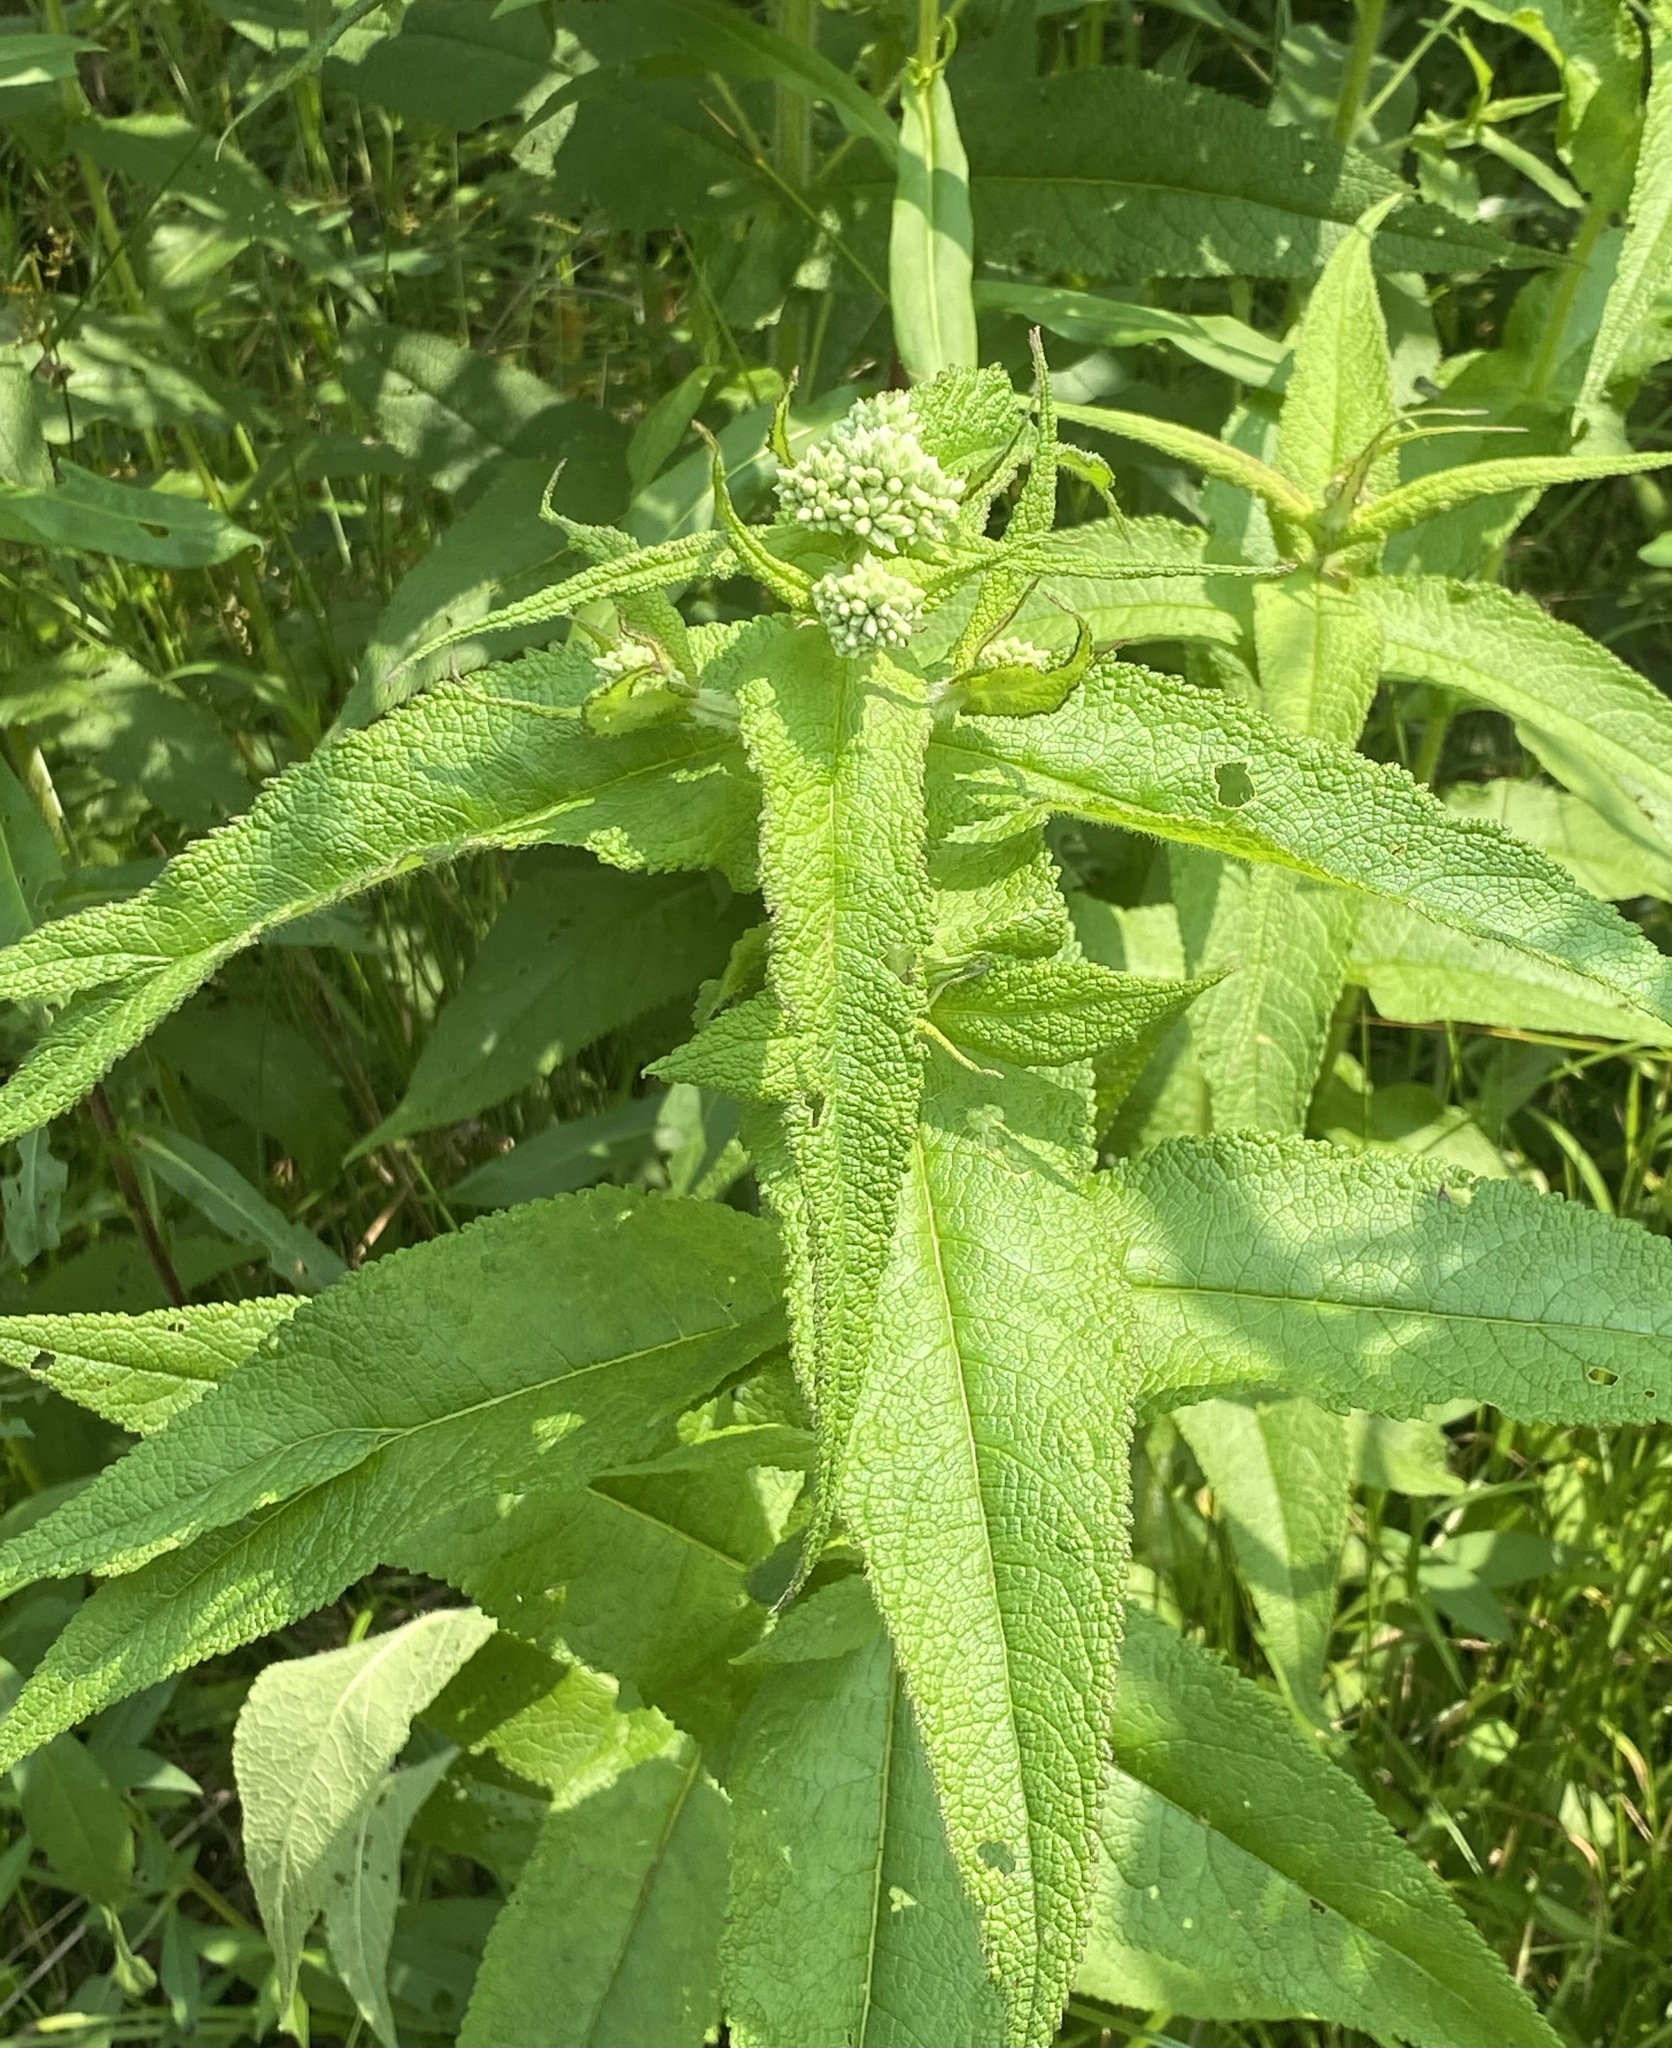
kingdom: Plantae
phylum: Tracheophyta
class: Magnoliopsida
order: Asterales
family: Asteraceae
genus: Eupatorium
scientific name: Eupatorium perfoliatum
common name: Boneset
